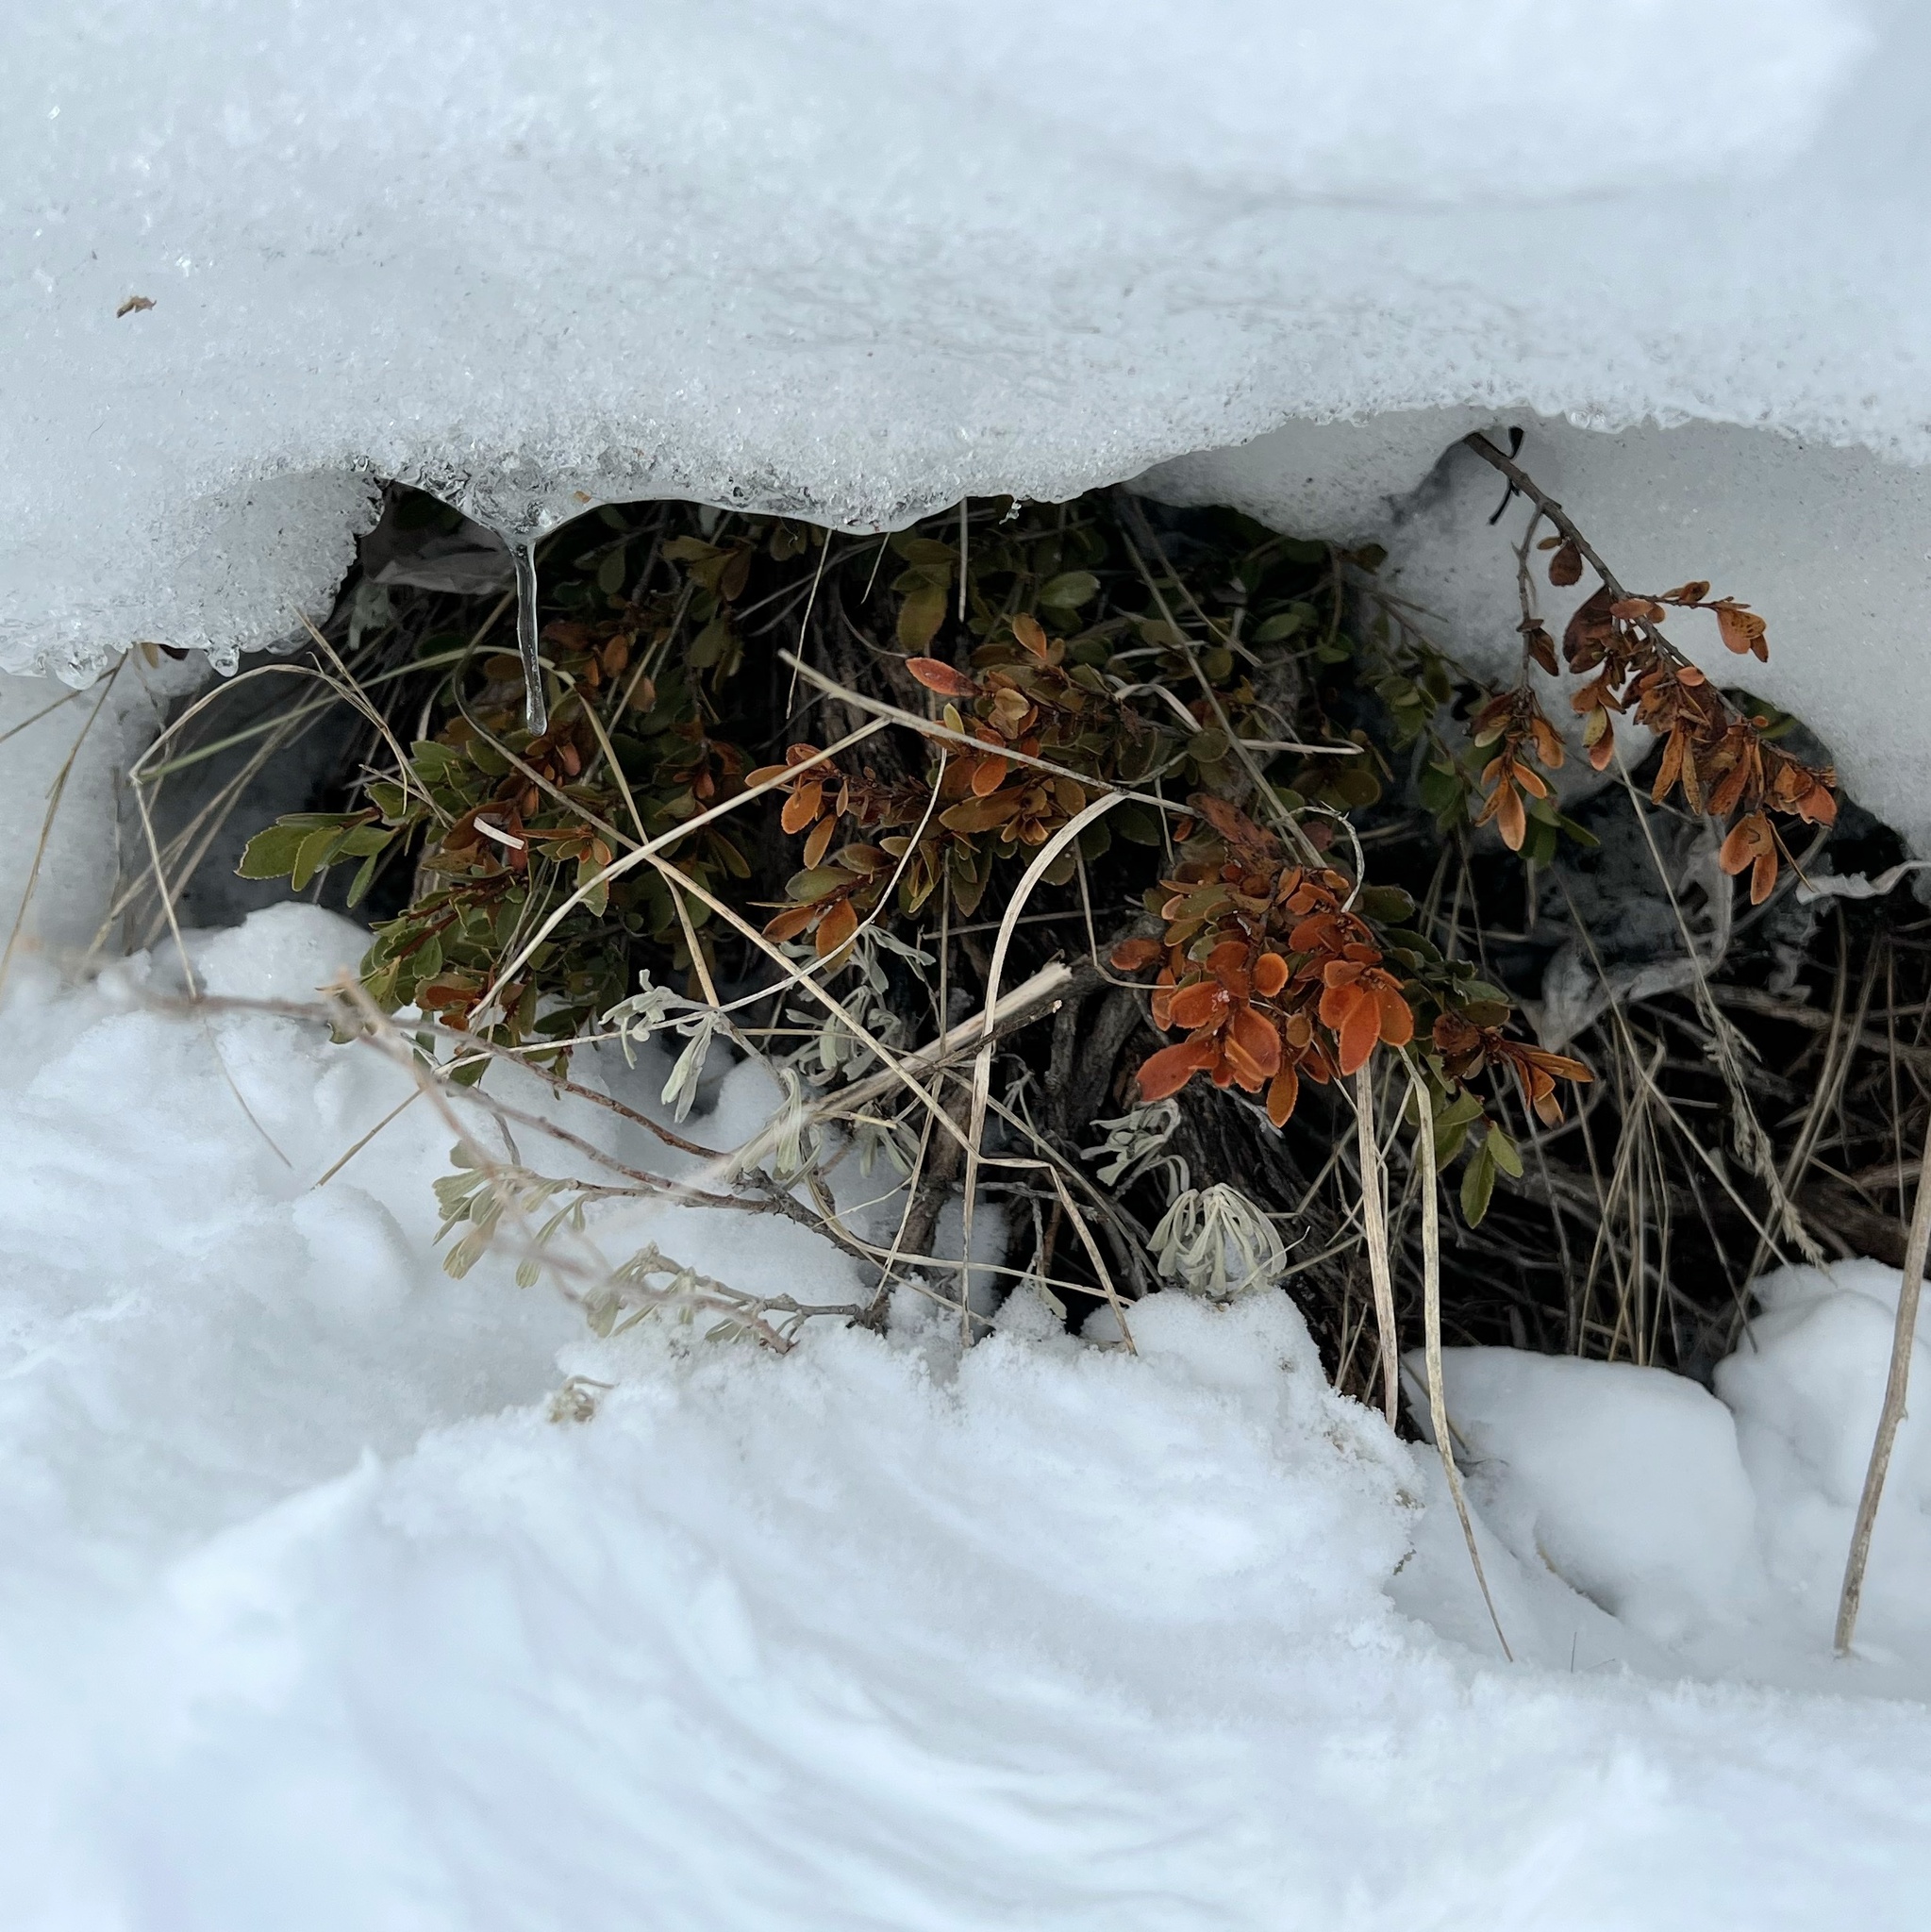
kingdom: Plantae
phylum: Tracheophyta
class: Magnoliopsida
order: Celastrales
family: Celastraceae
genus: Paxistima
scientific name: Paxistima myrsinites
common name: Mountain-lover
